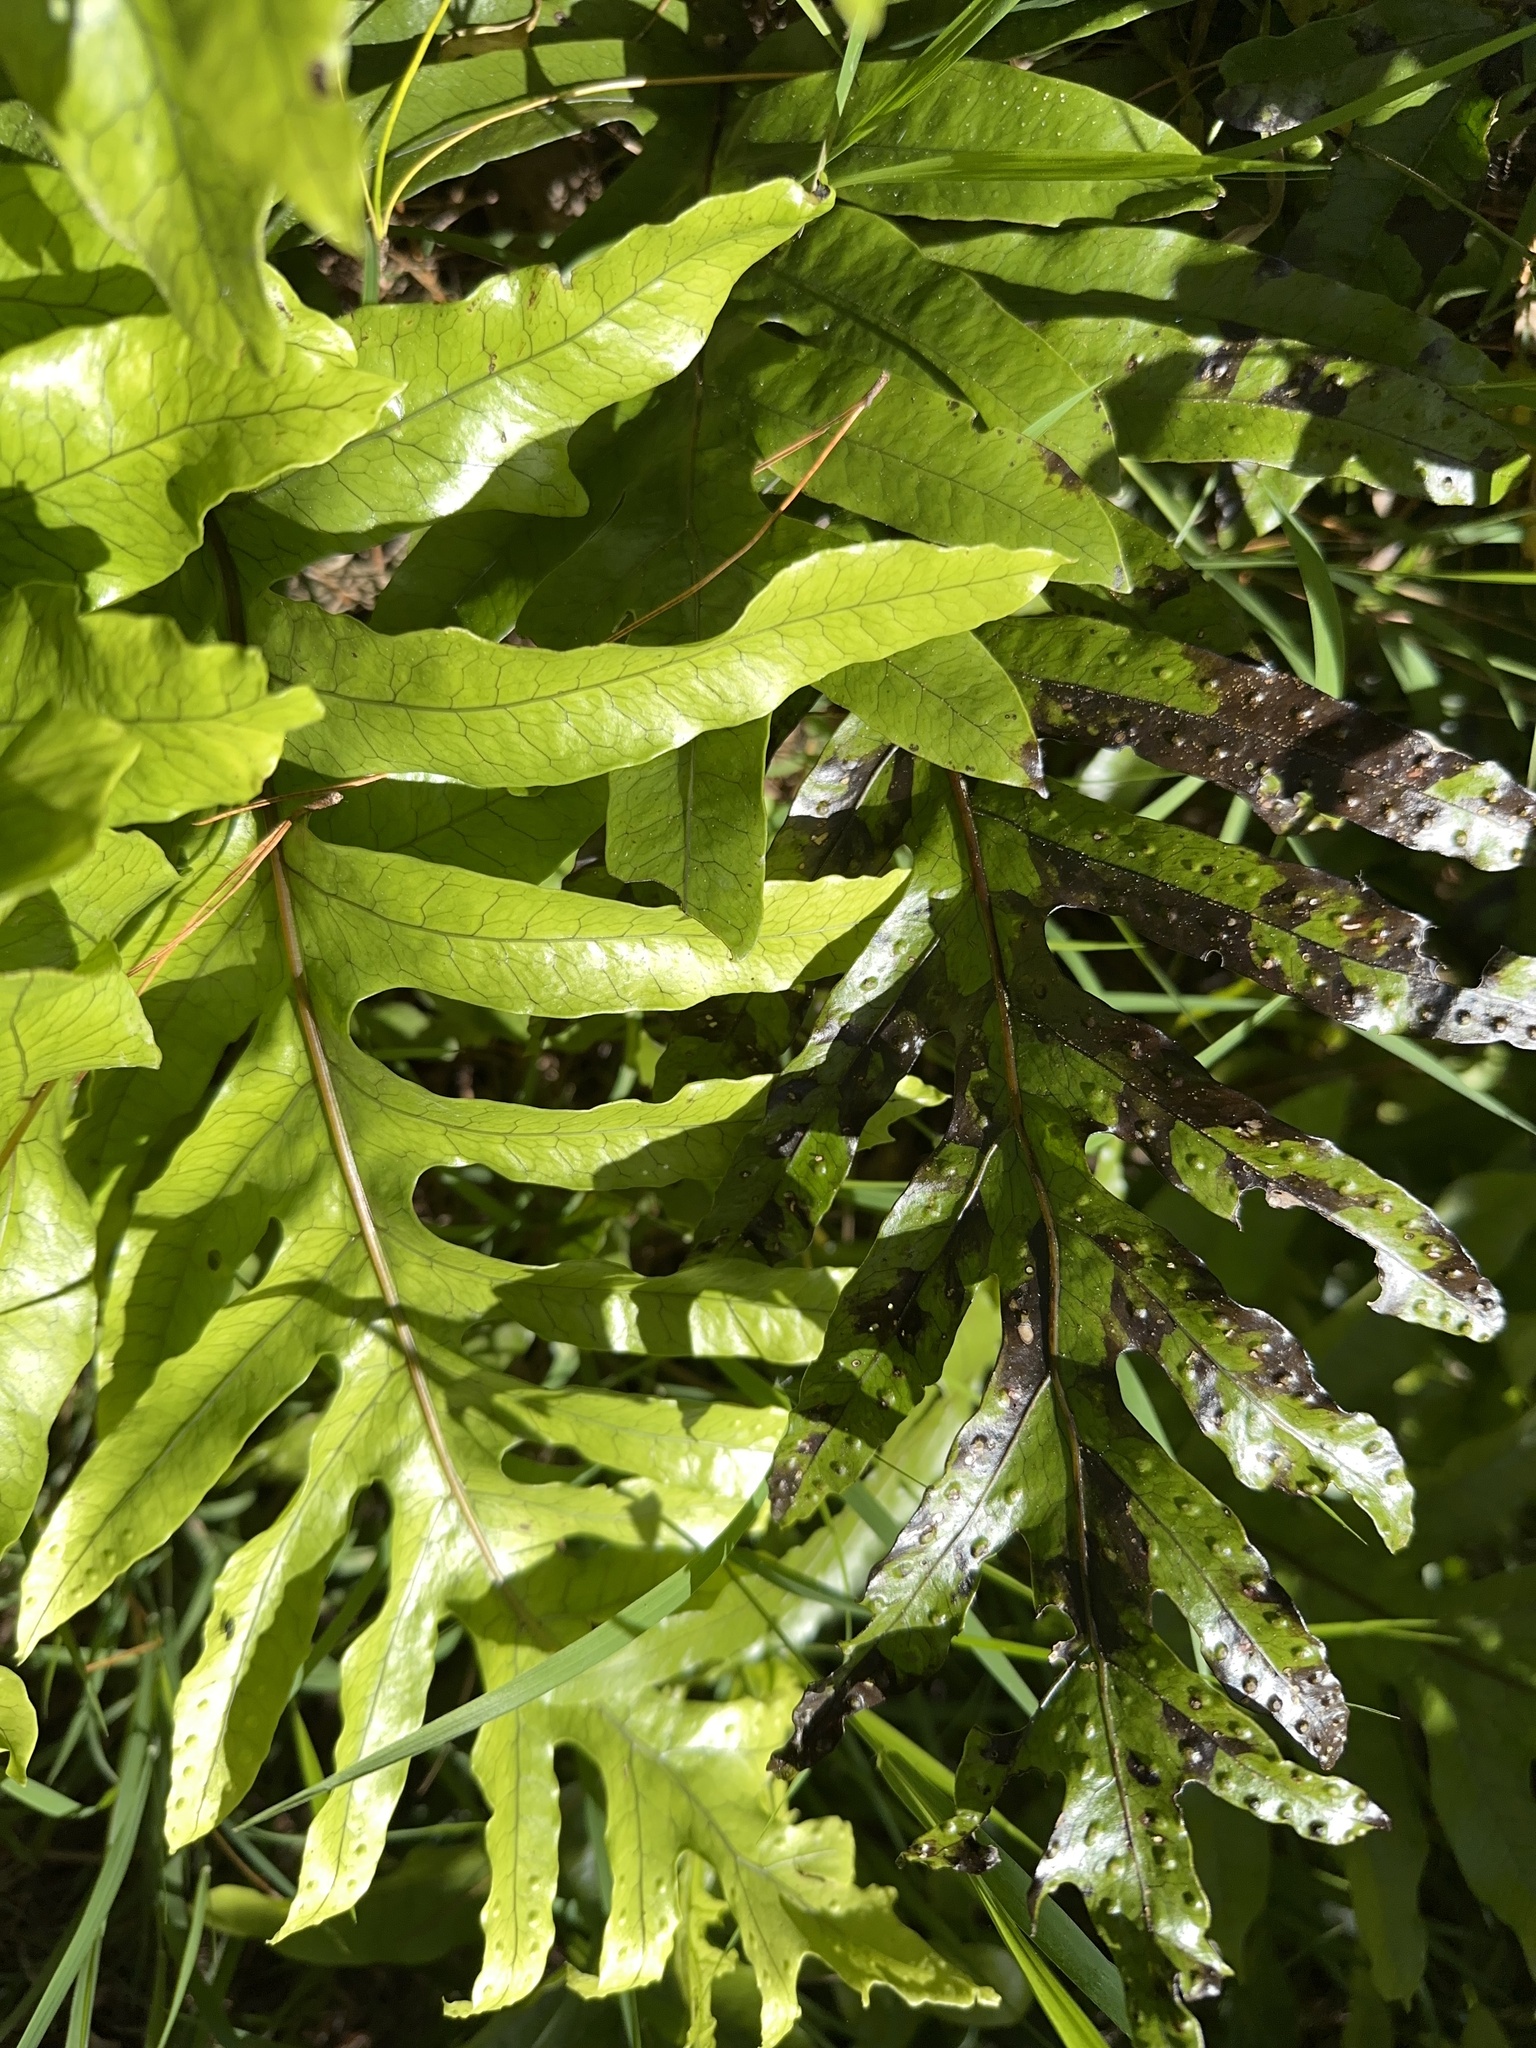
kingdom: Plantae
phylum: Tracheophyta
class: Polypodiopsida
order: Polypodiales
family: Polypodiaceae
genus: Lecanopteris
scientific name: Lecanopteris pustulata
